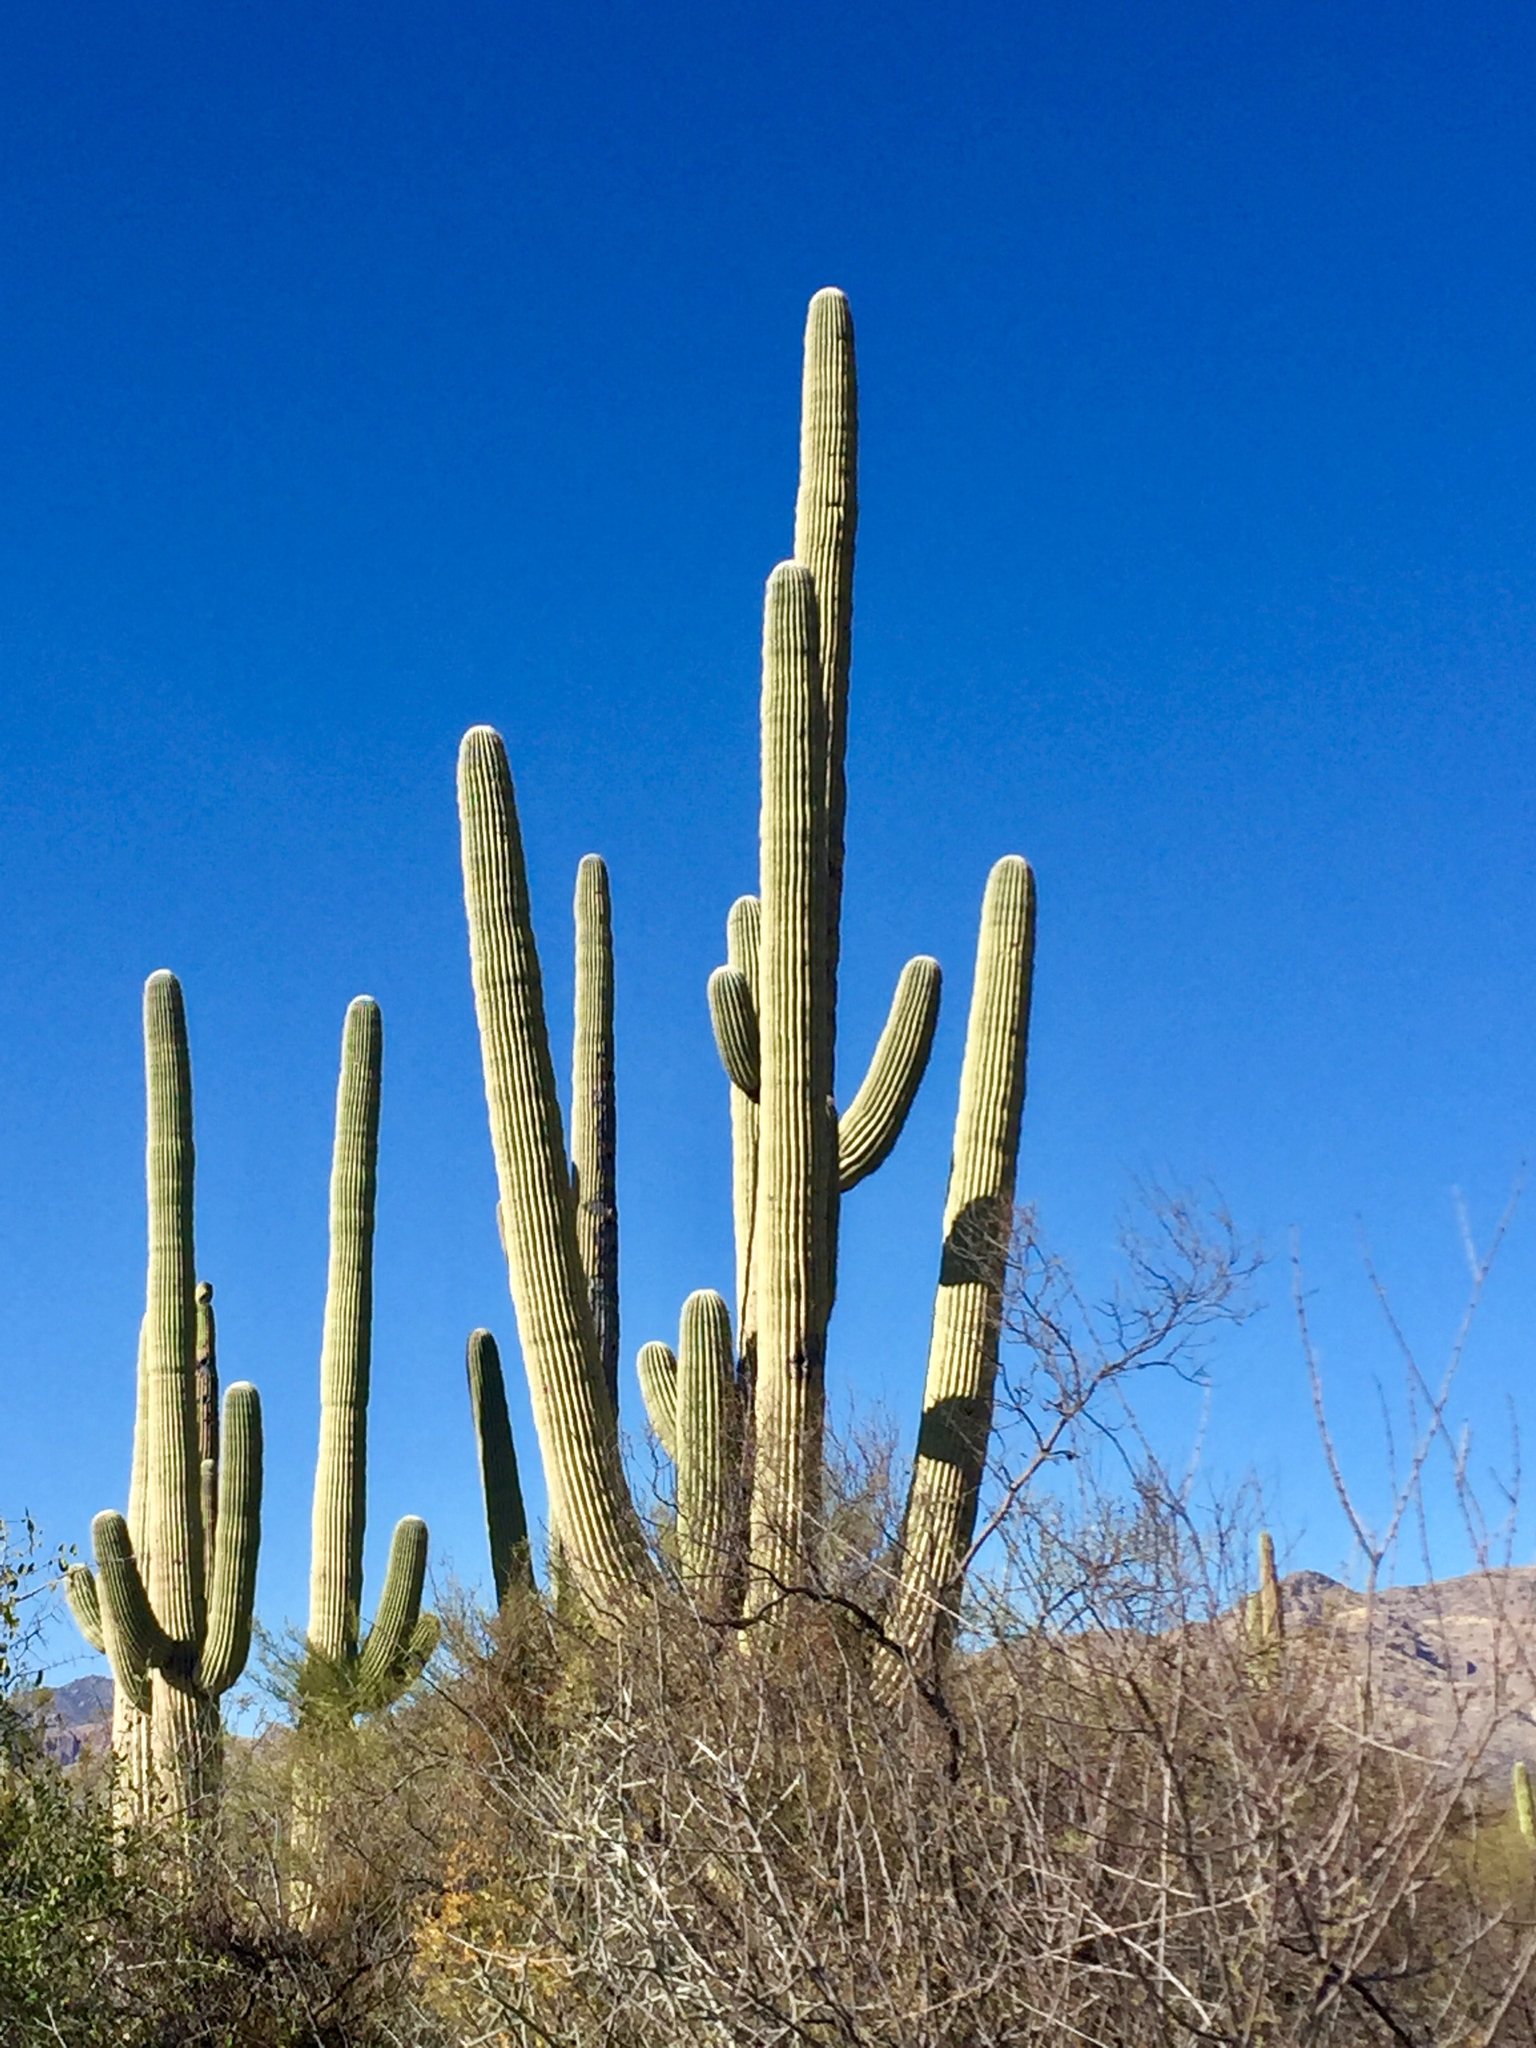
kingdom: Plantae
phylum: Tracheophyta
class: Magnoliopsida
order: Caryophyllales
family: Cactaceae
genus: Carnegiea
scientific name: Carnegiea gigantea
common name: Saguaro
